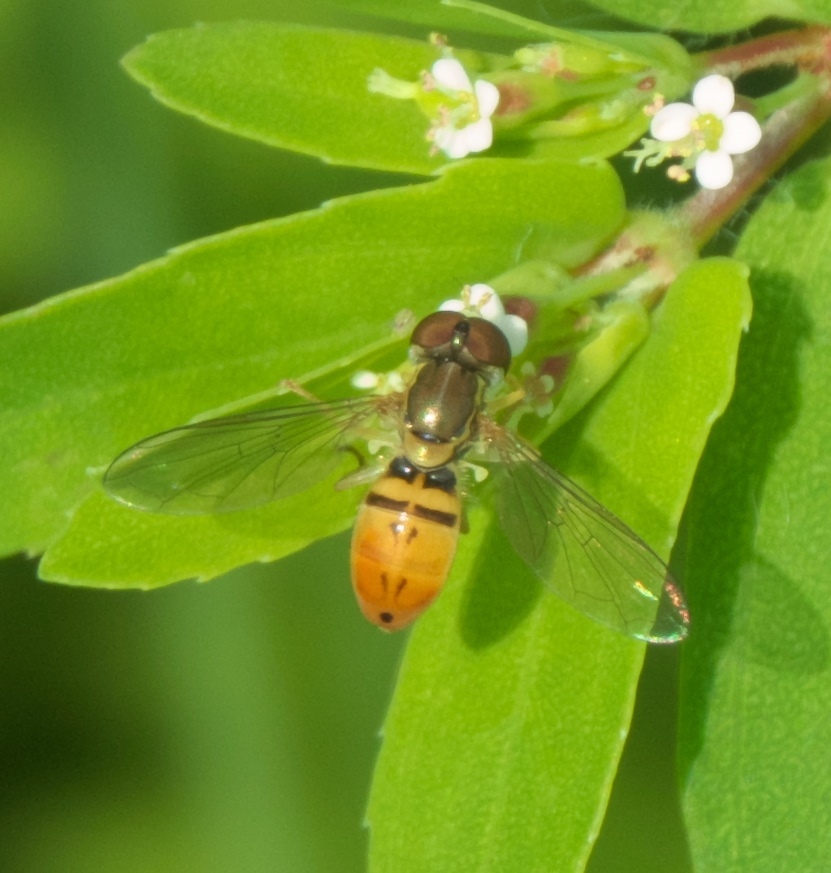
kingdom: Animalia
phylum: Arthropoda
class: Insecta
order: Diptera
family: Syrphidae
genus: Toxomerus
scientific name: Toxomerus marginatus
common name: Syrphid fly
